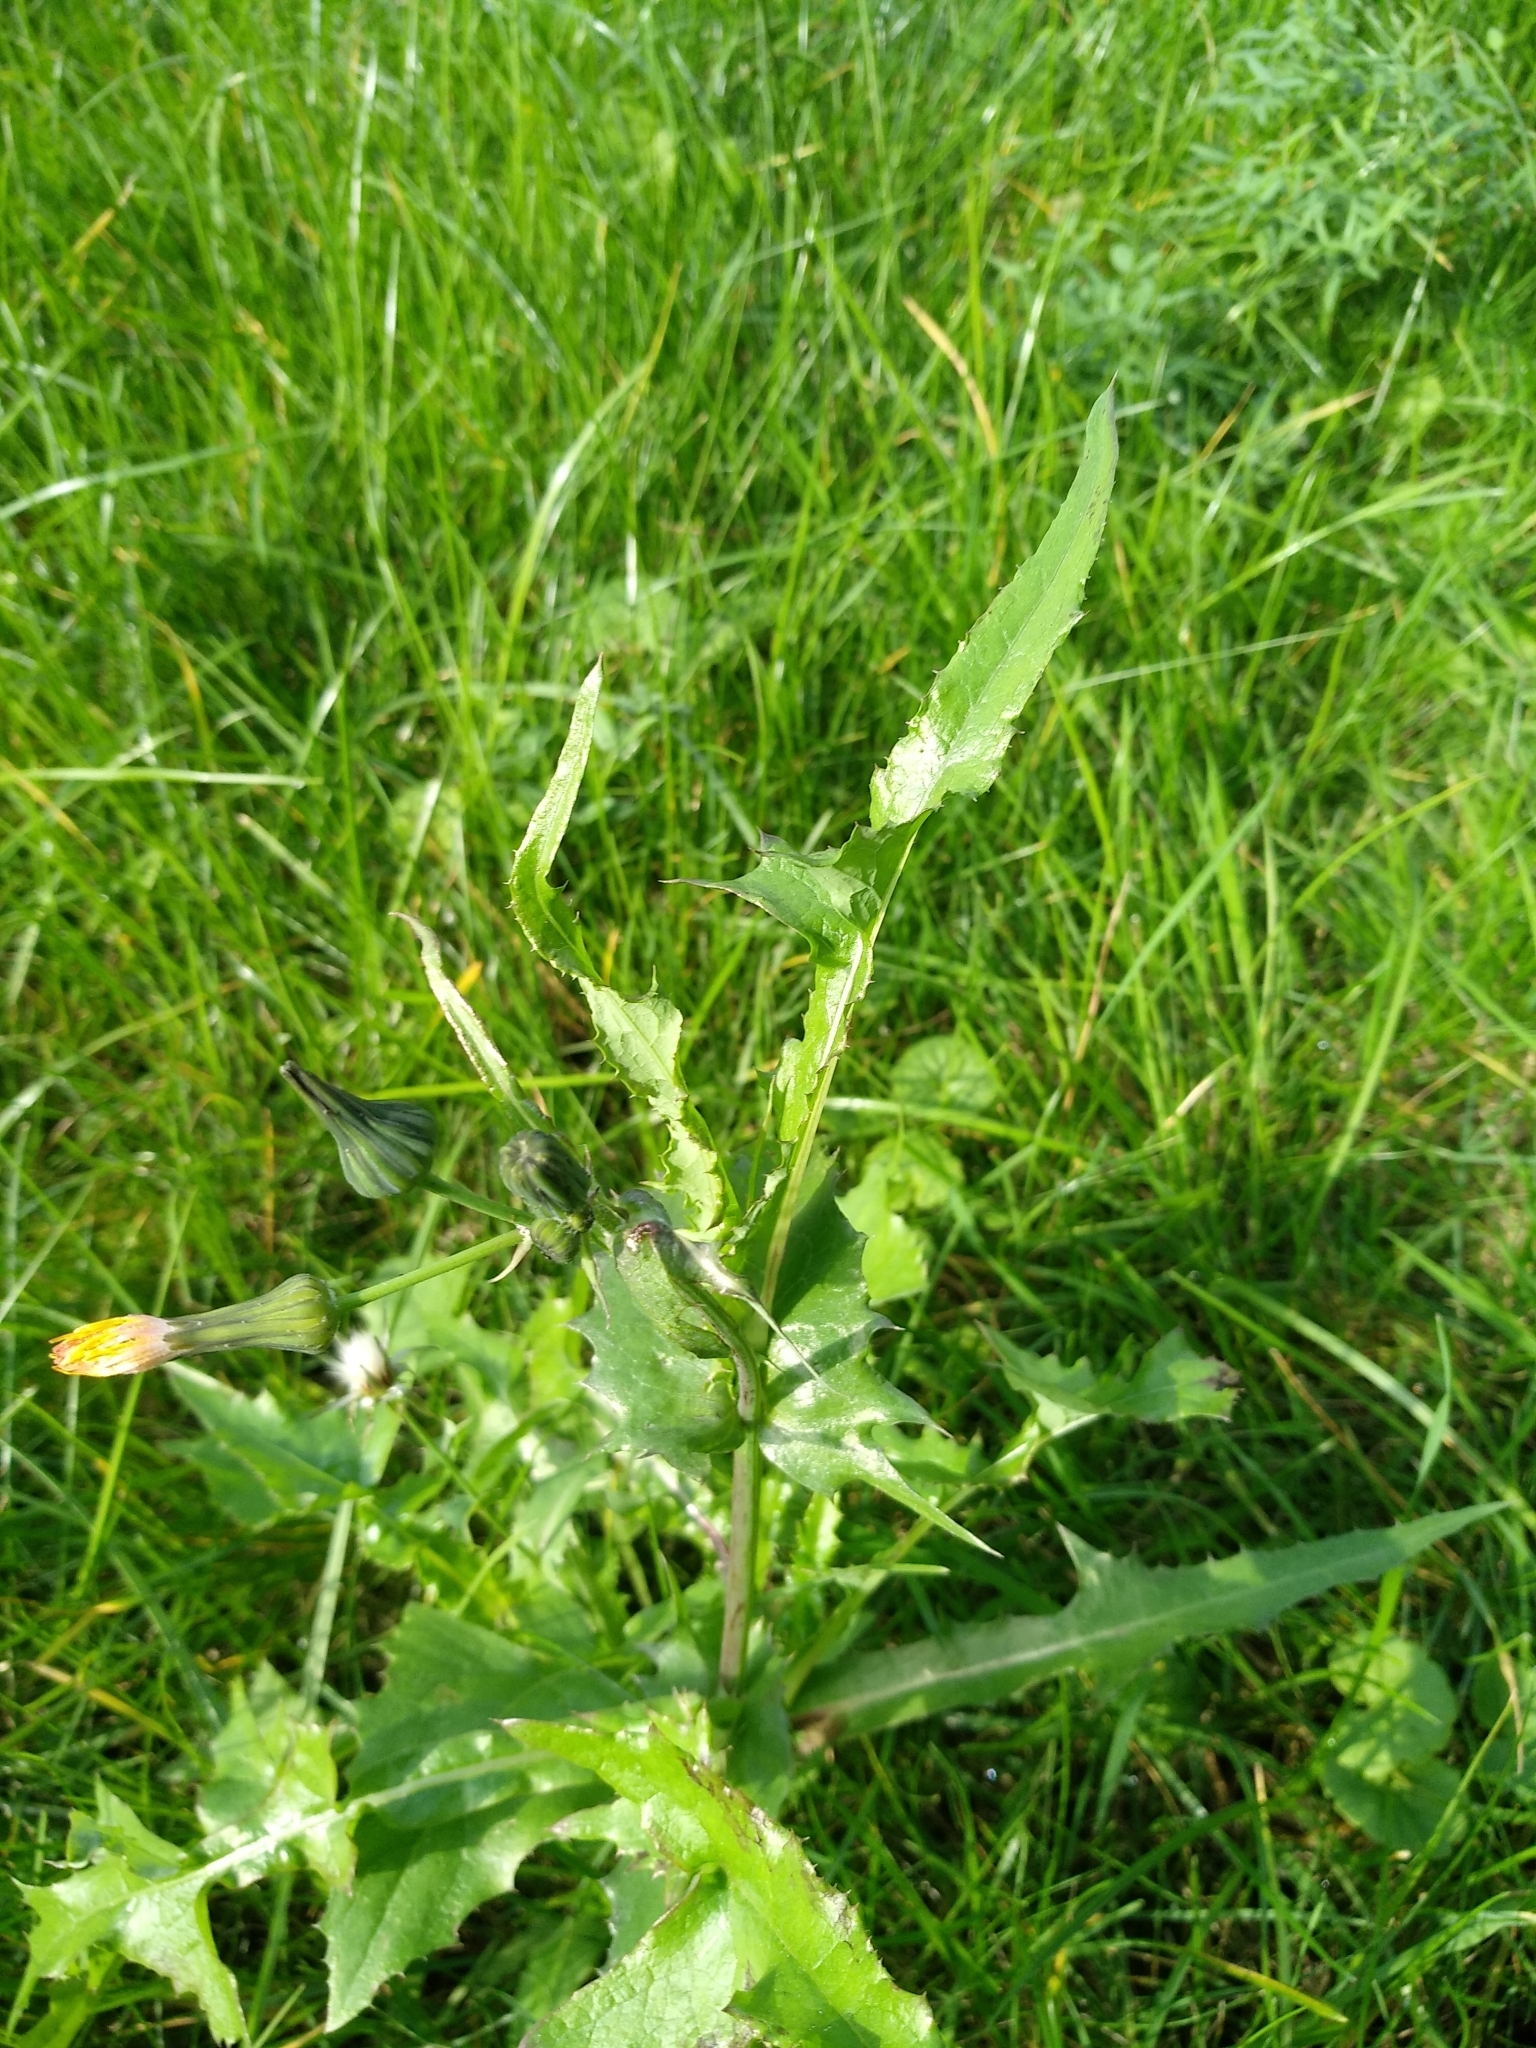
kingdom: Plantae
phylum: Tracheophyta
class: Magnoliopsida
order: Asterales
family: Asteraceae
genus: Sonchus
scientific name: Sonchus oleraceus
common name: Common sowthistle
